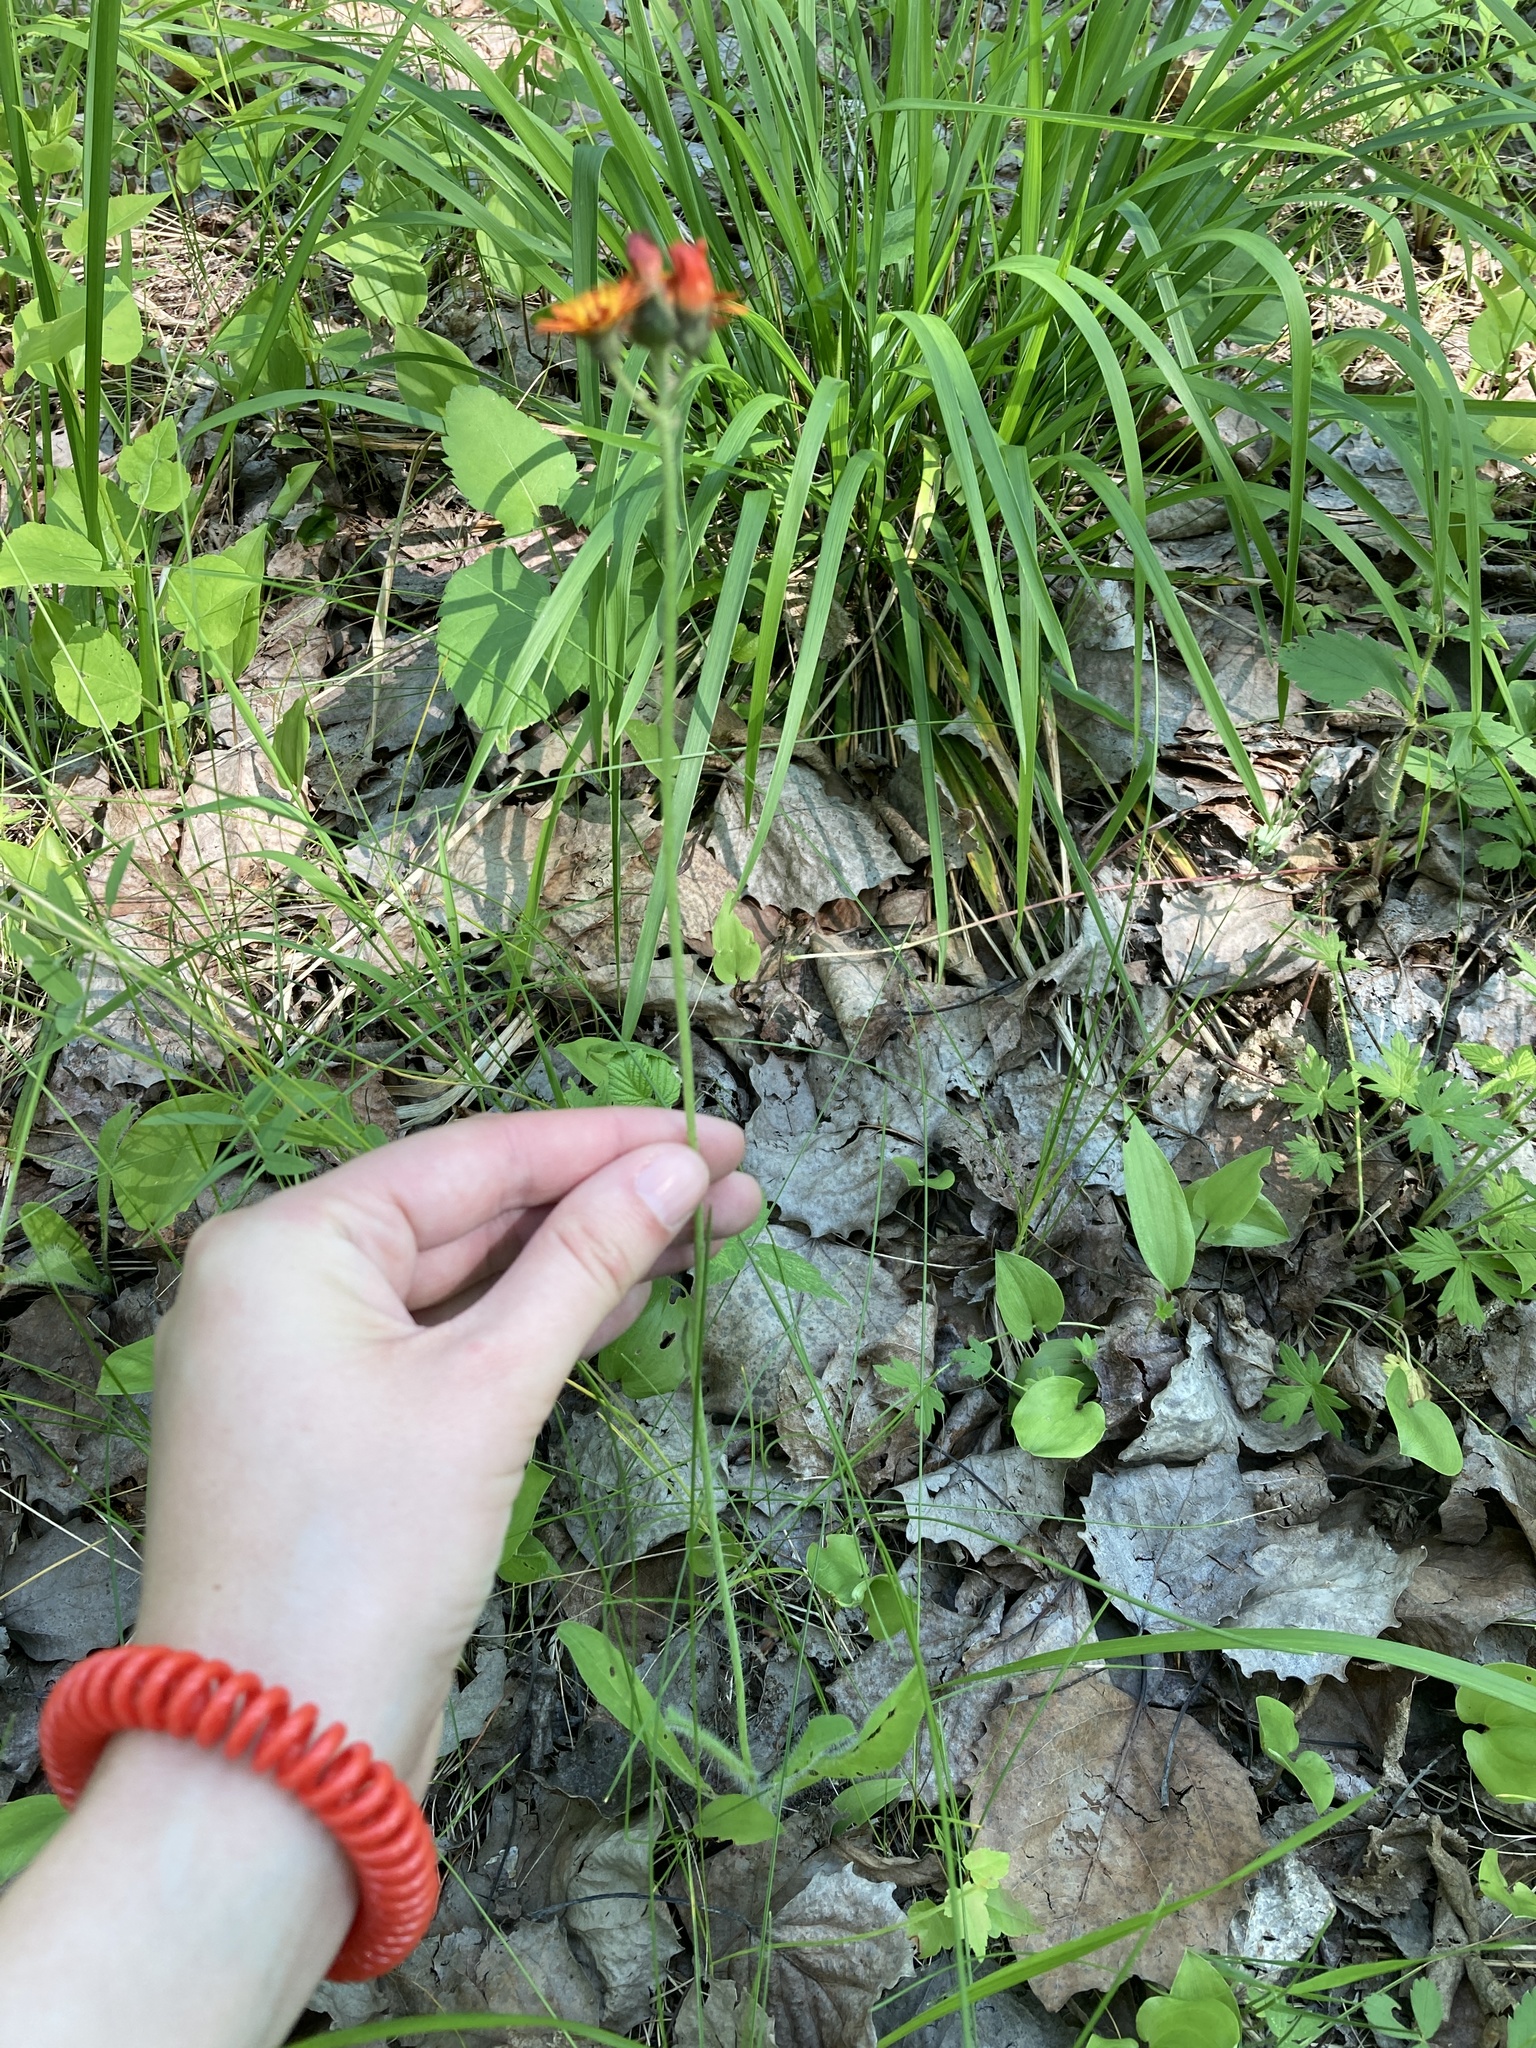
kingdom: Plantae
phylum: Tracheophyta
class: Magnoliopsida
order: Asterales
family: Asteraceae
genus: Pilosella
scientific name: Pilosella aurantiaca
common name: Fox-and-cubs
